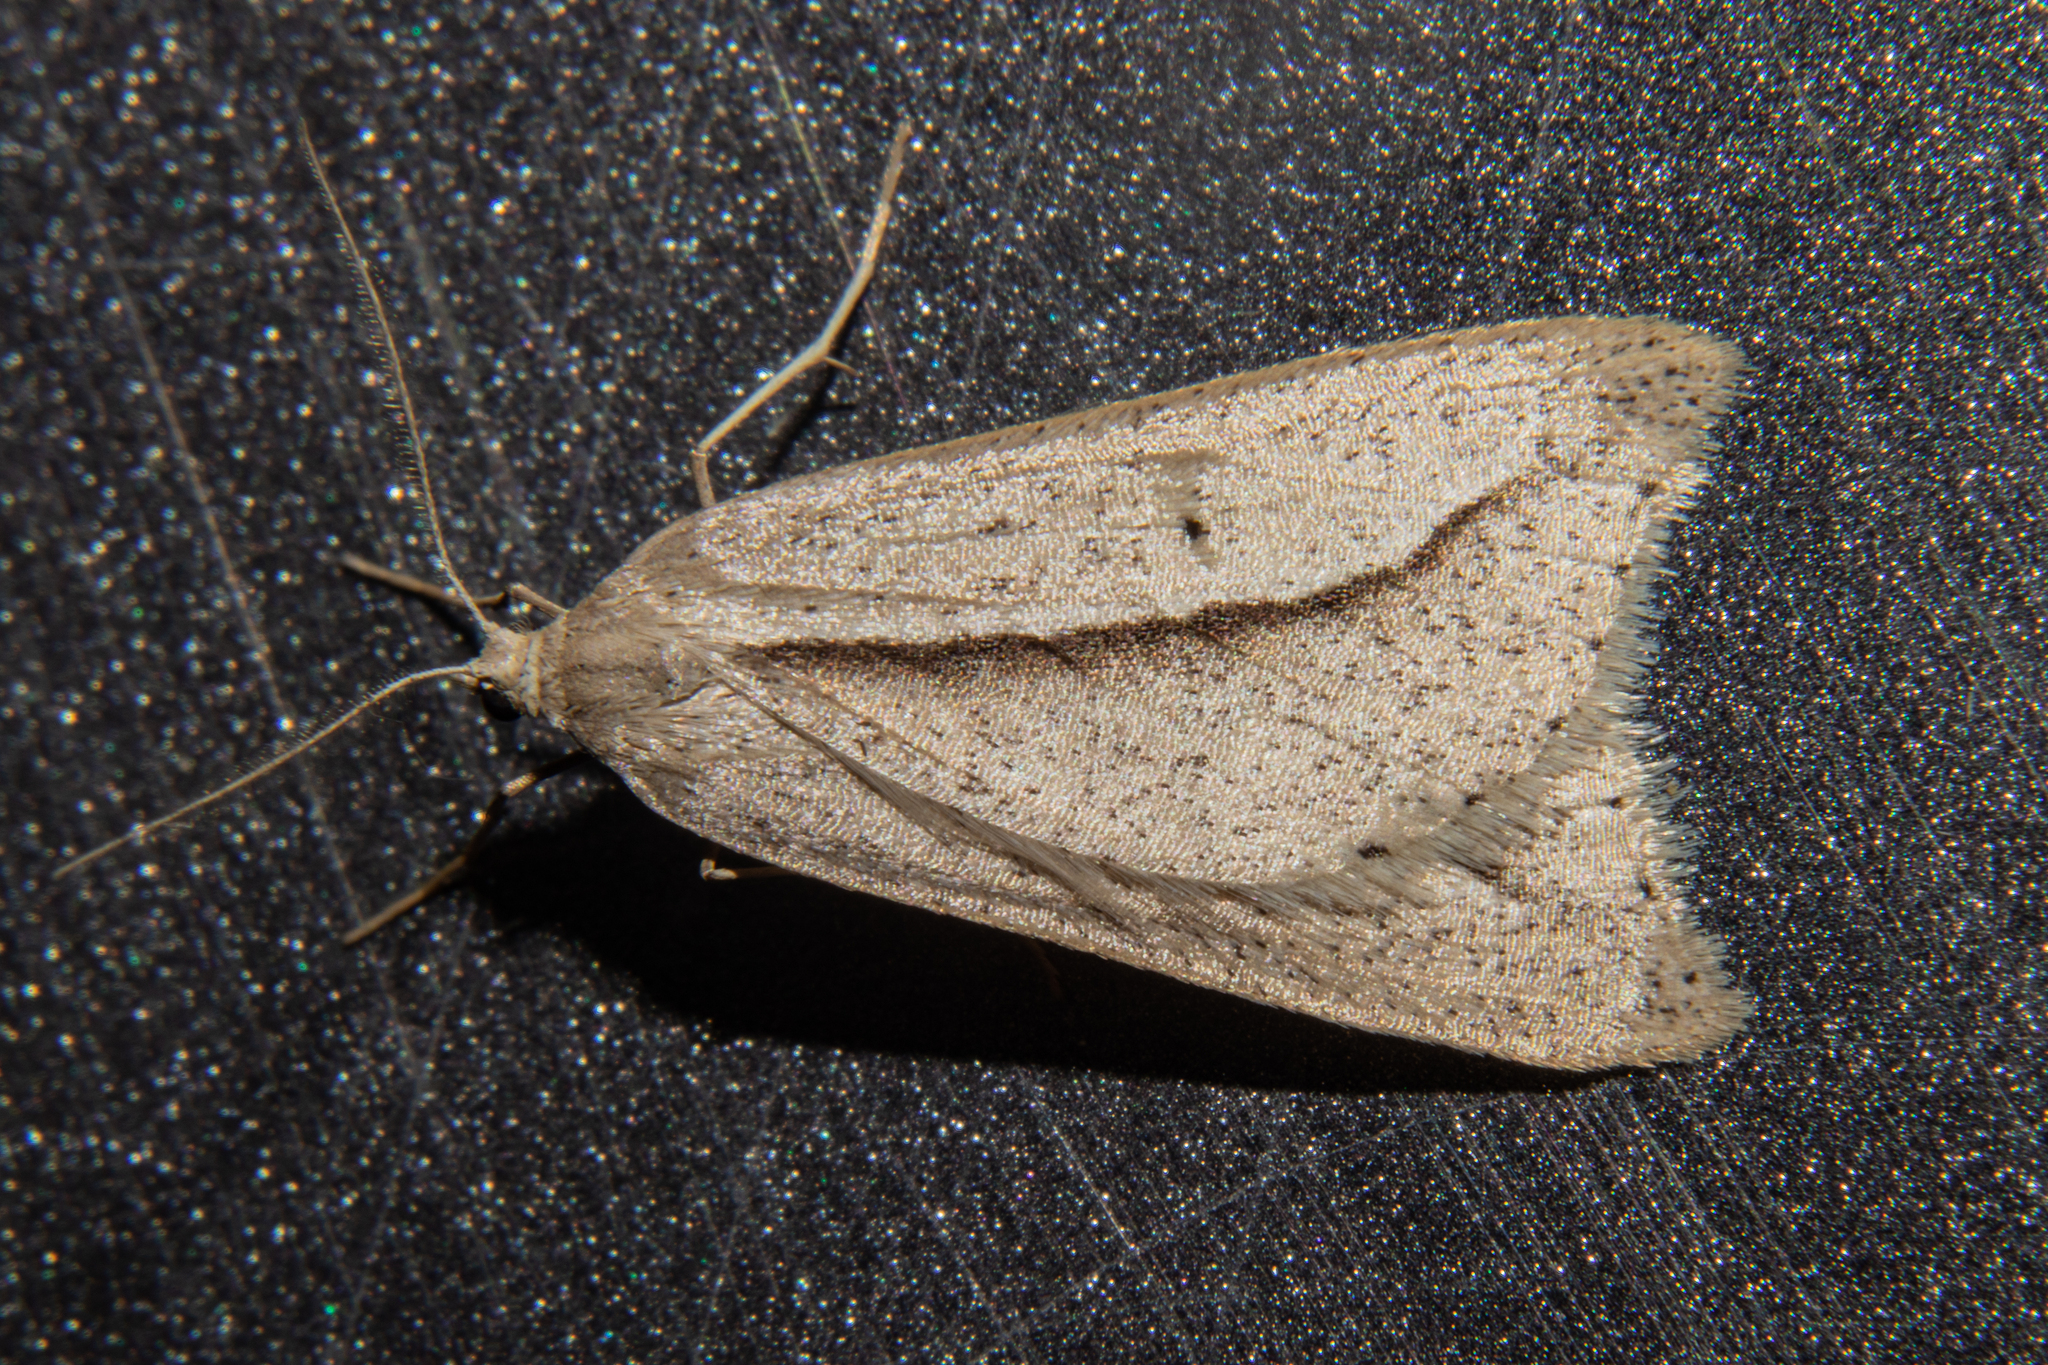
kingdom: Animalia
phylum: Arthropoda
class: Insecta
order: Lepidoptera
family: Geometridae
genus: Theoxena
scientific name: Theoxena scissaria
